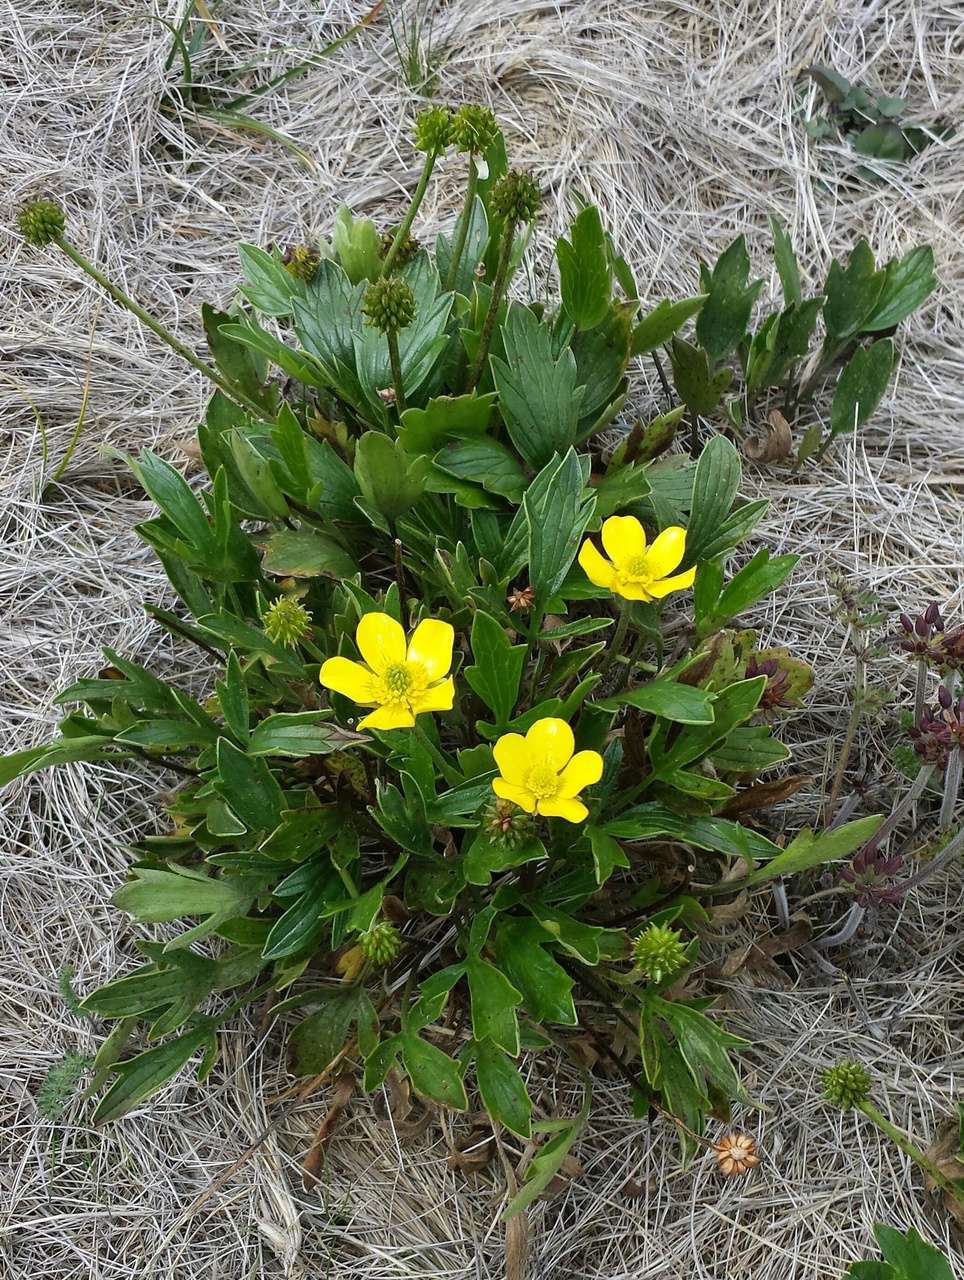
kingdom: Plantae
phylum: Tracheophyta
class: Magnoliopsida
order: Ranunculales
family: Ranunculaceae
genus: Ranunculus
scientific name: Ranunculus victoriensis
